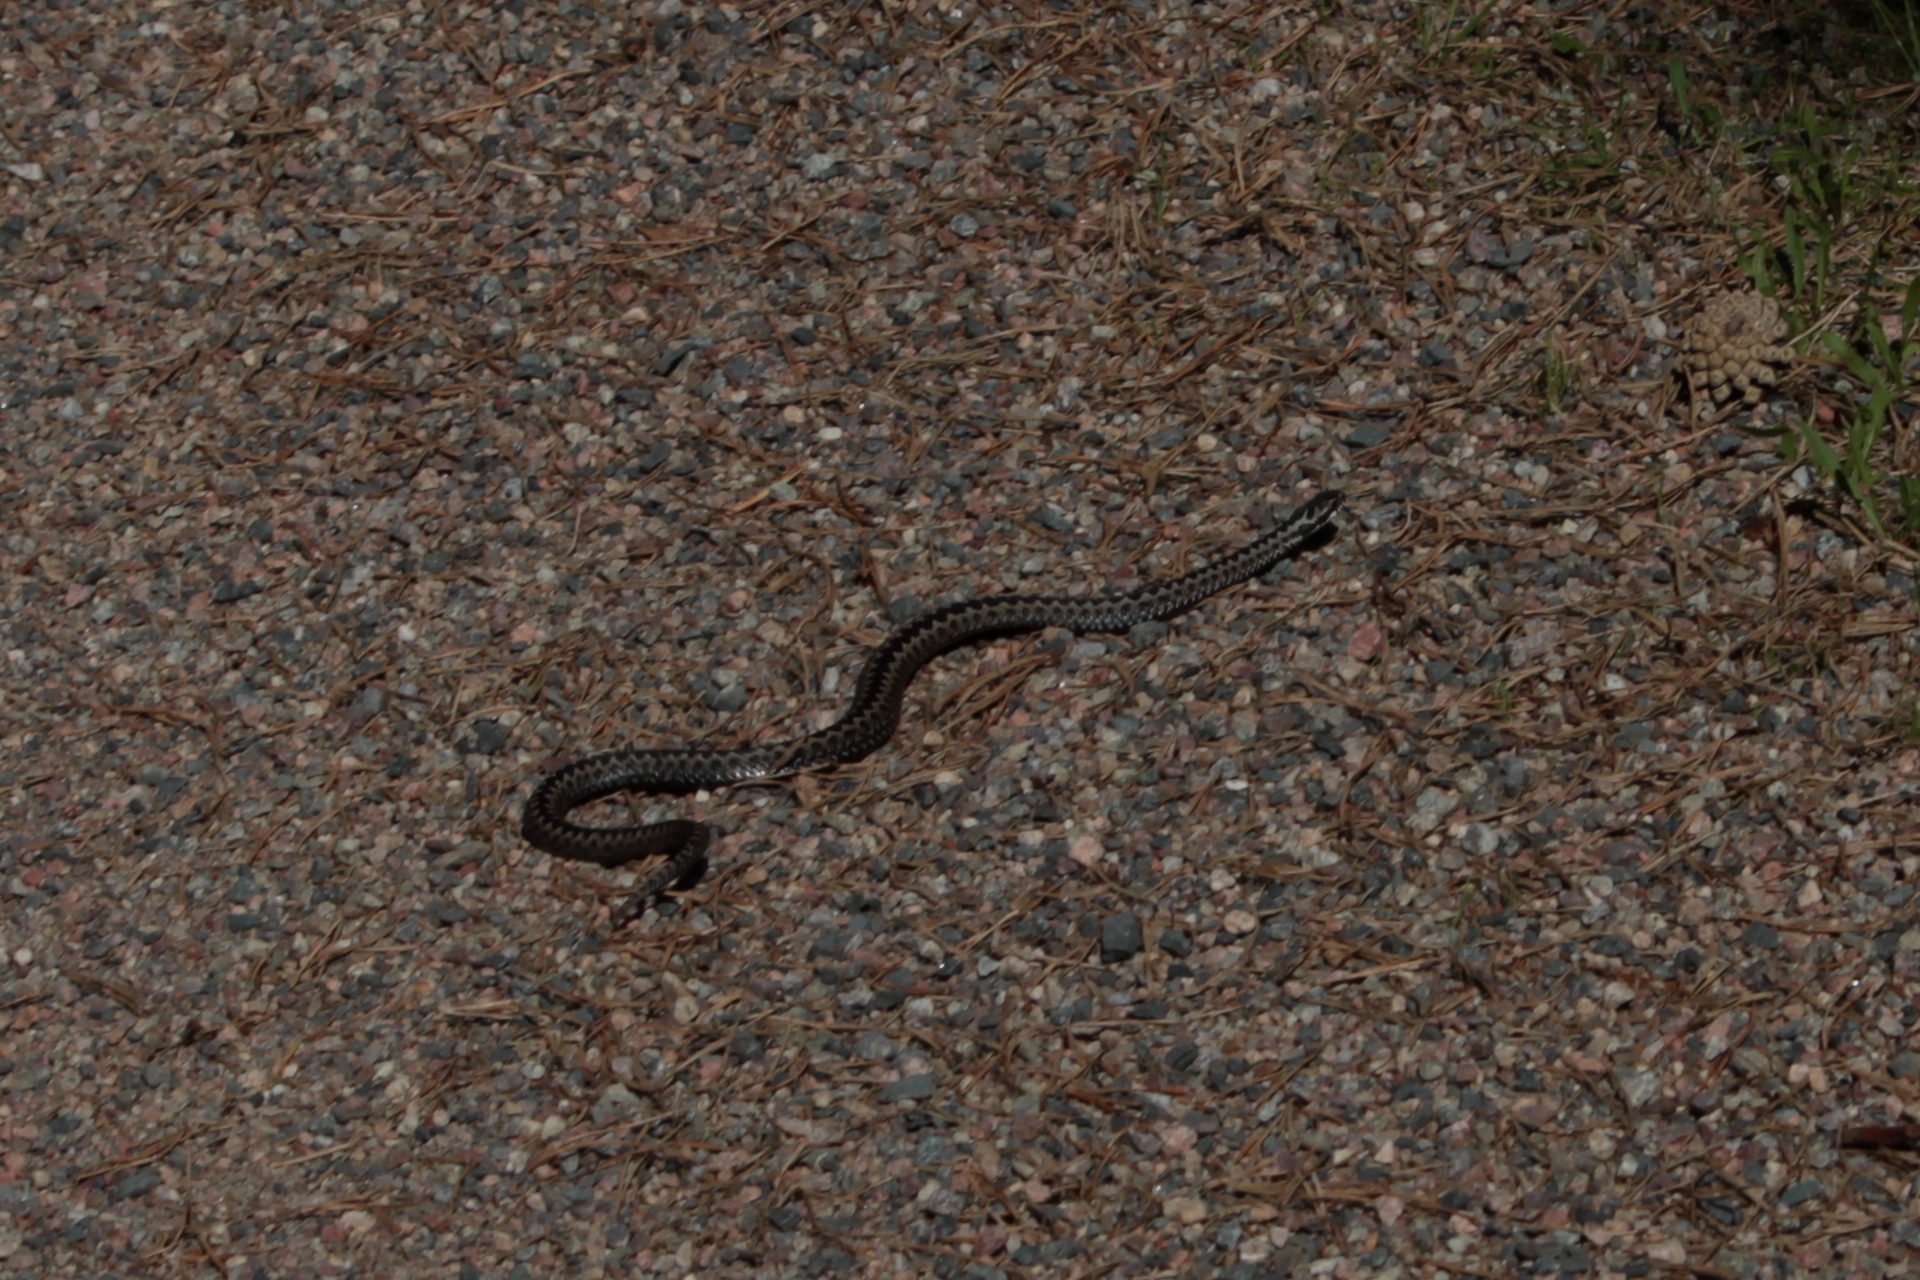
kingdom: Animalia
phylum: Chordata
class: Squamata
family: Viperidae
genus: Vipera
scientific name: Vipera berus
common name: Adder
